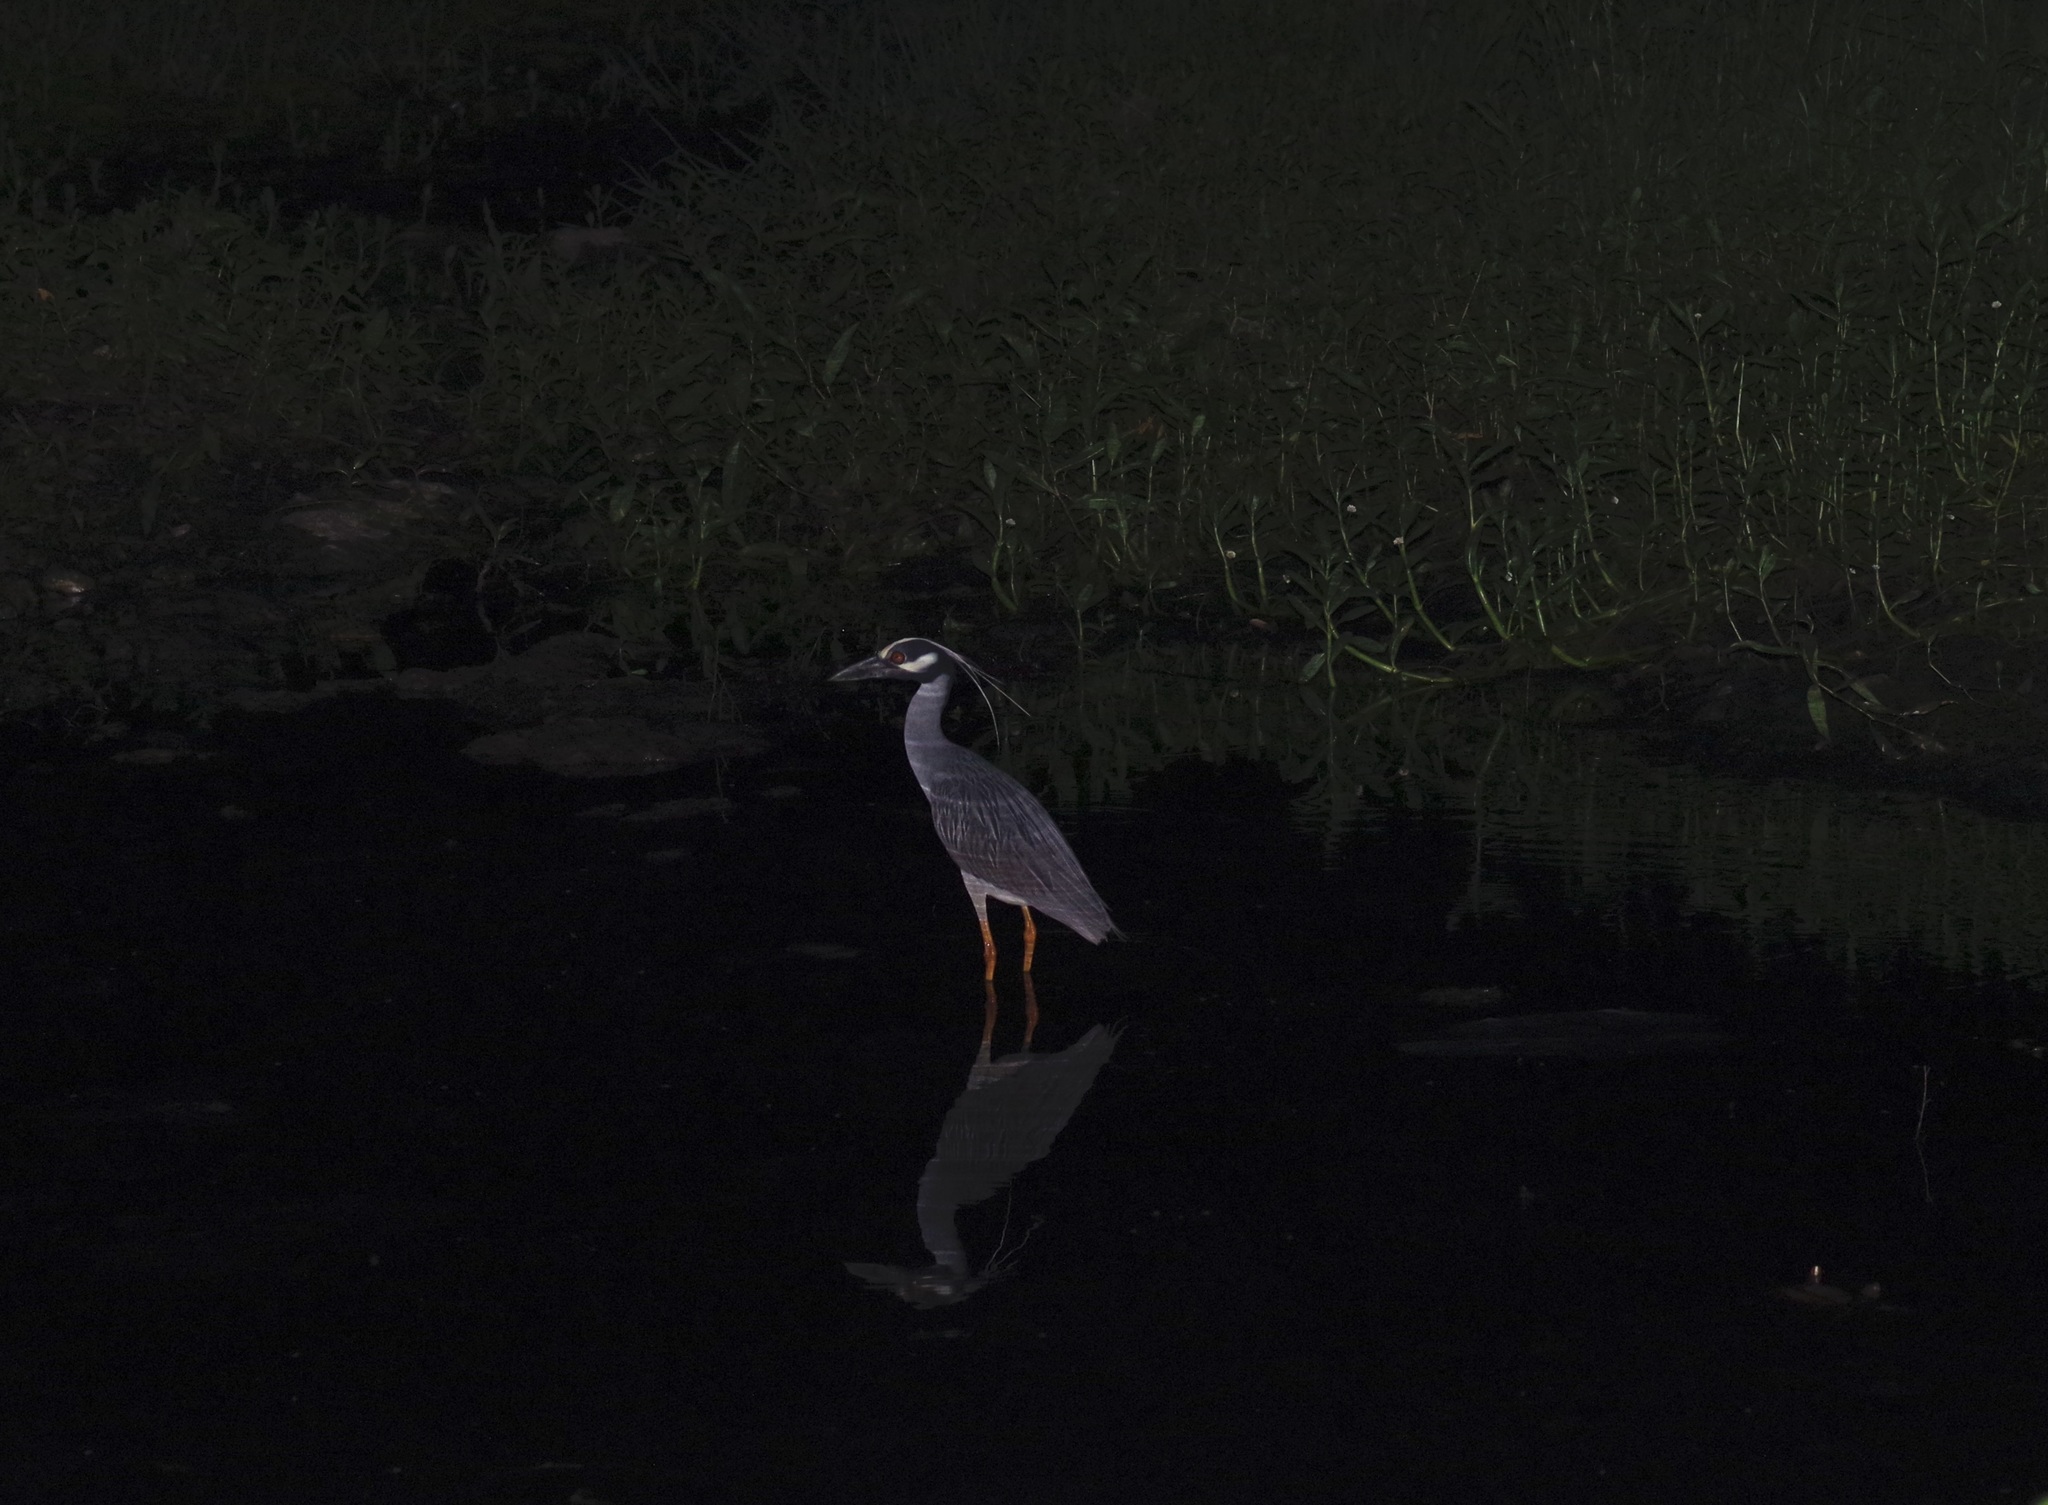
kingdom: Animalia
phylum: Chordata
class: Aves
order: Pelecaniformes
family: Ardeidae
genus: Nyctanassa
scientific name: Nyctanassa violacea
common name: Yellow-crowned night heron
